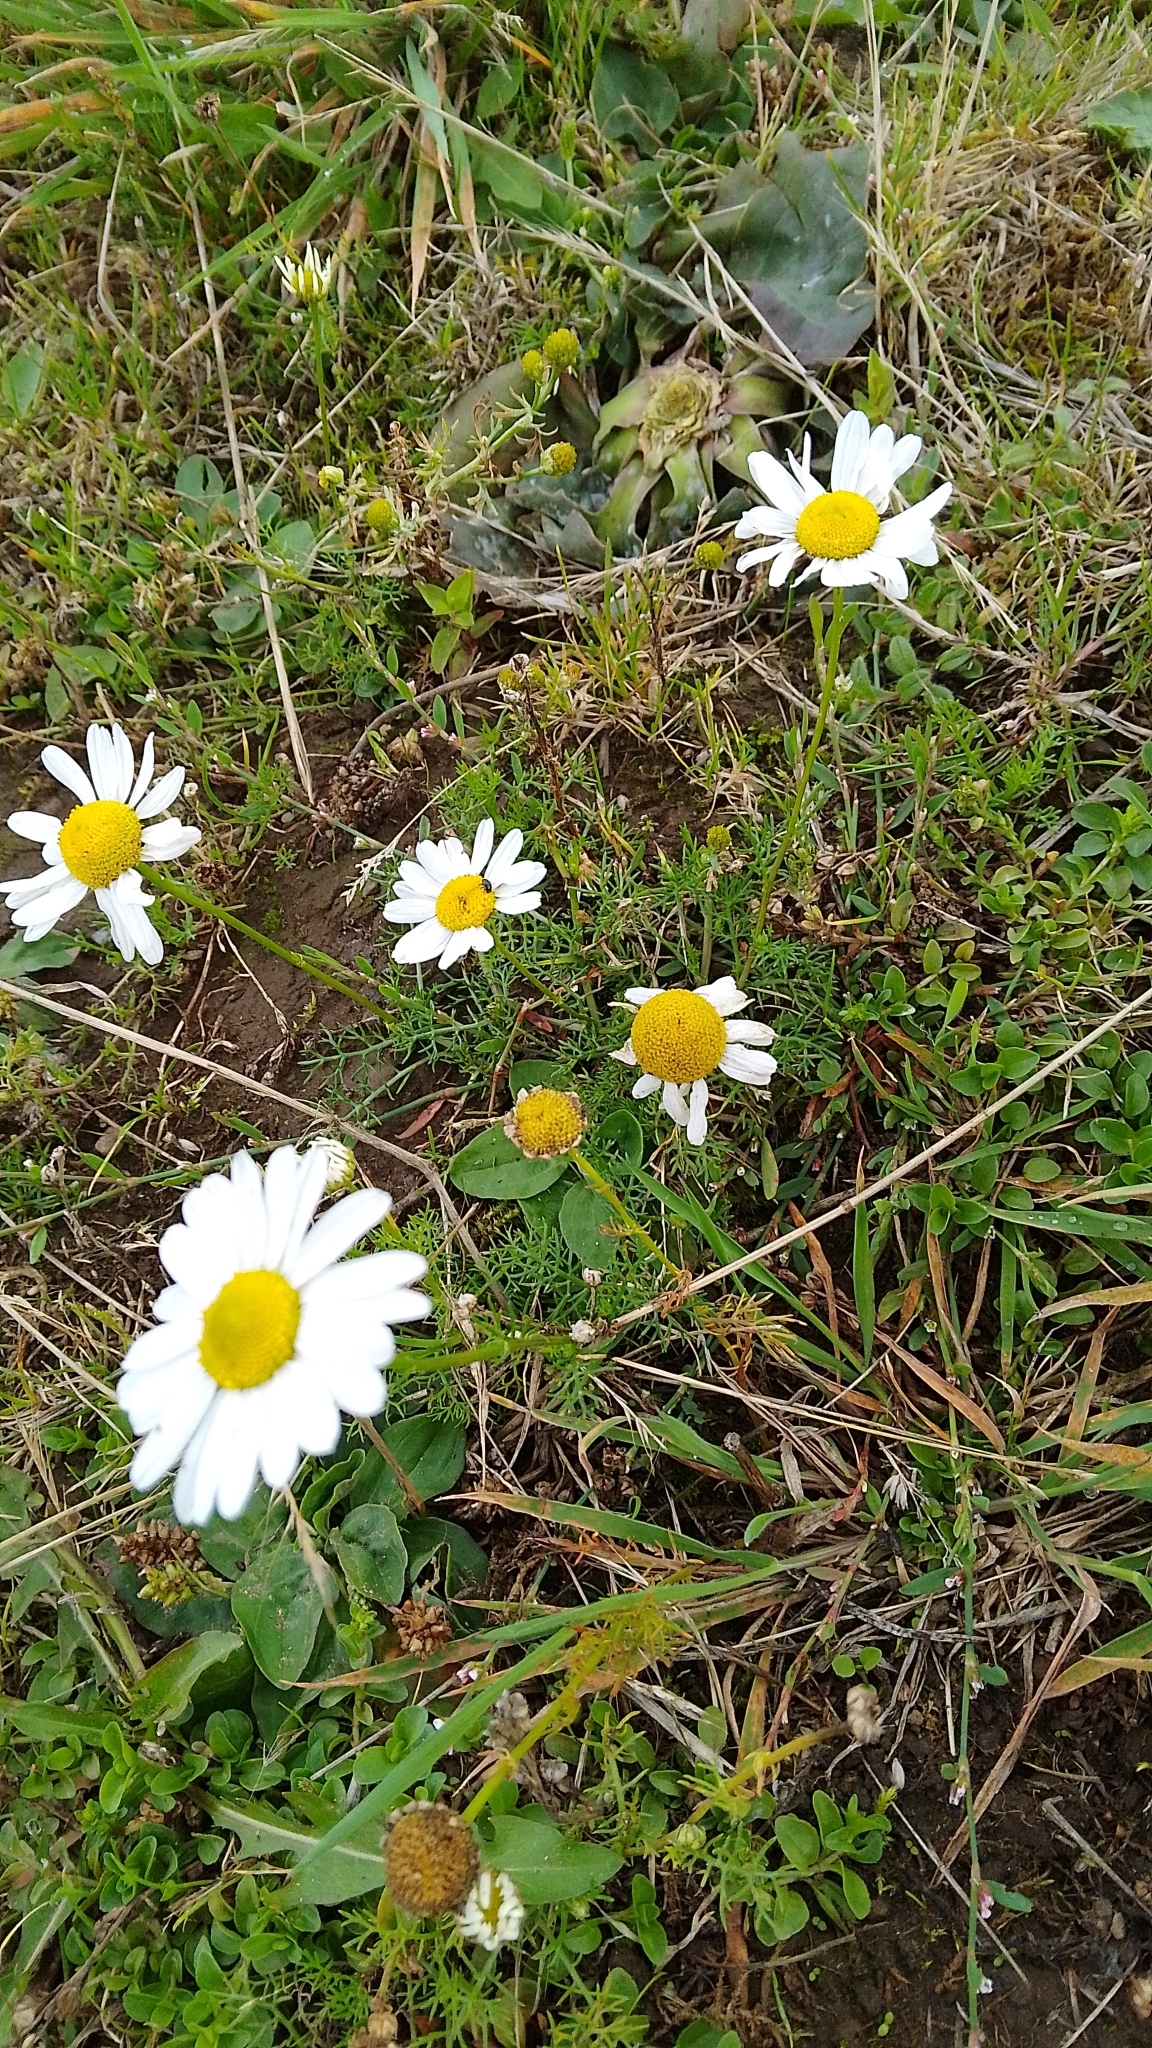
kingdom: Plantae
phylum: Tracheophyta
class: Magnoliopsida
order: Asterales
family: Asteraceae
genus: Tripleurospermum
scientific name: Tripleurospermum inodorum
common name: Scentless mayweed
